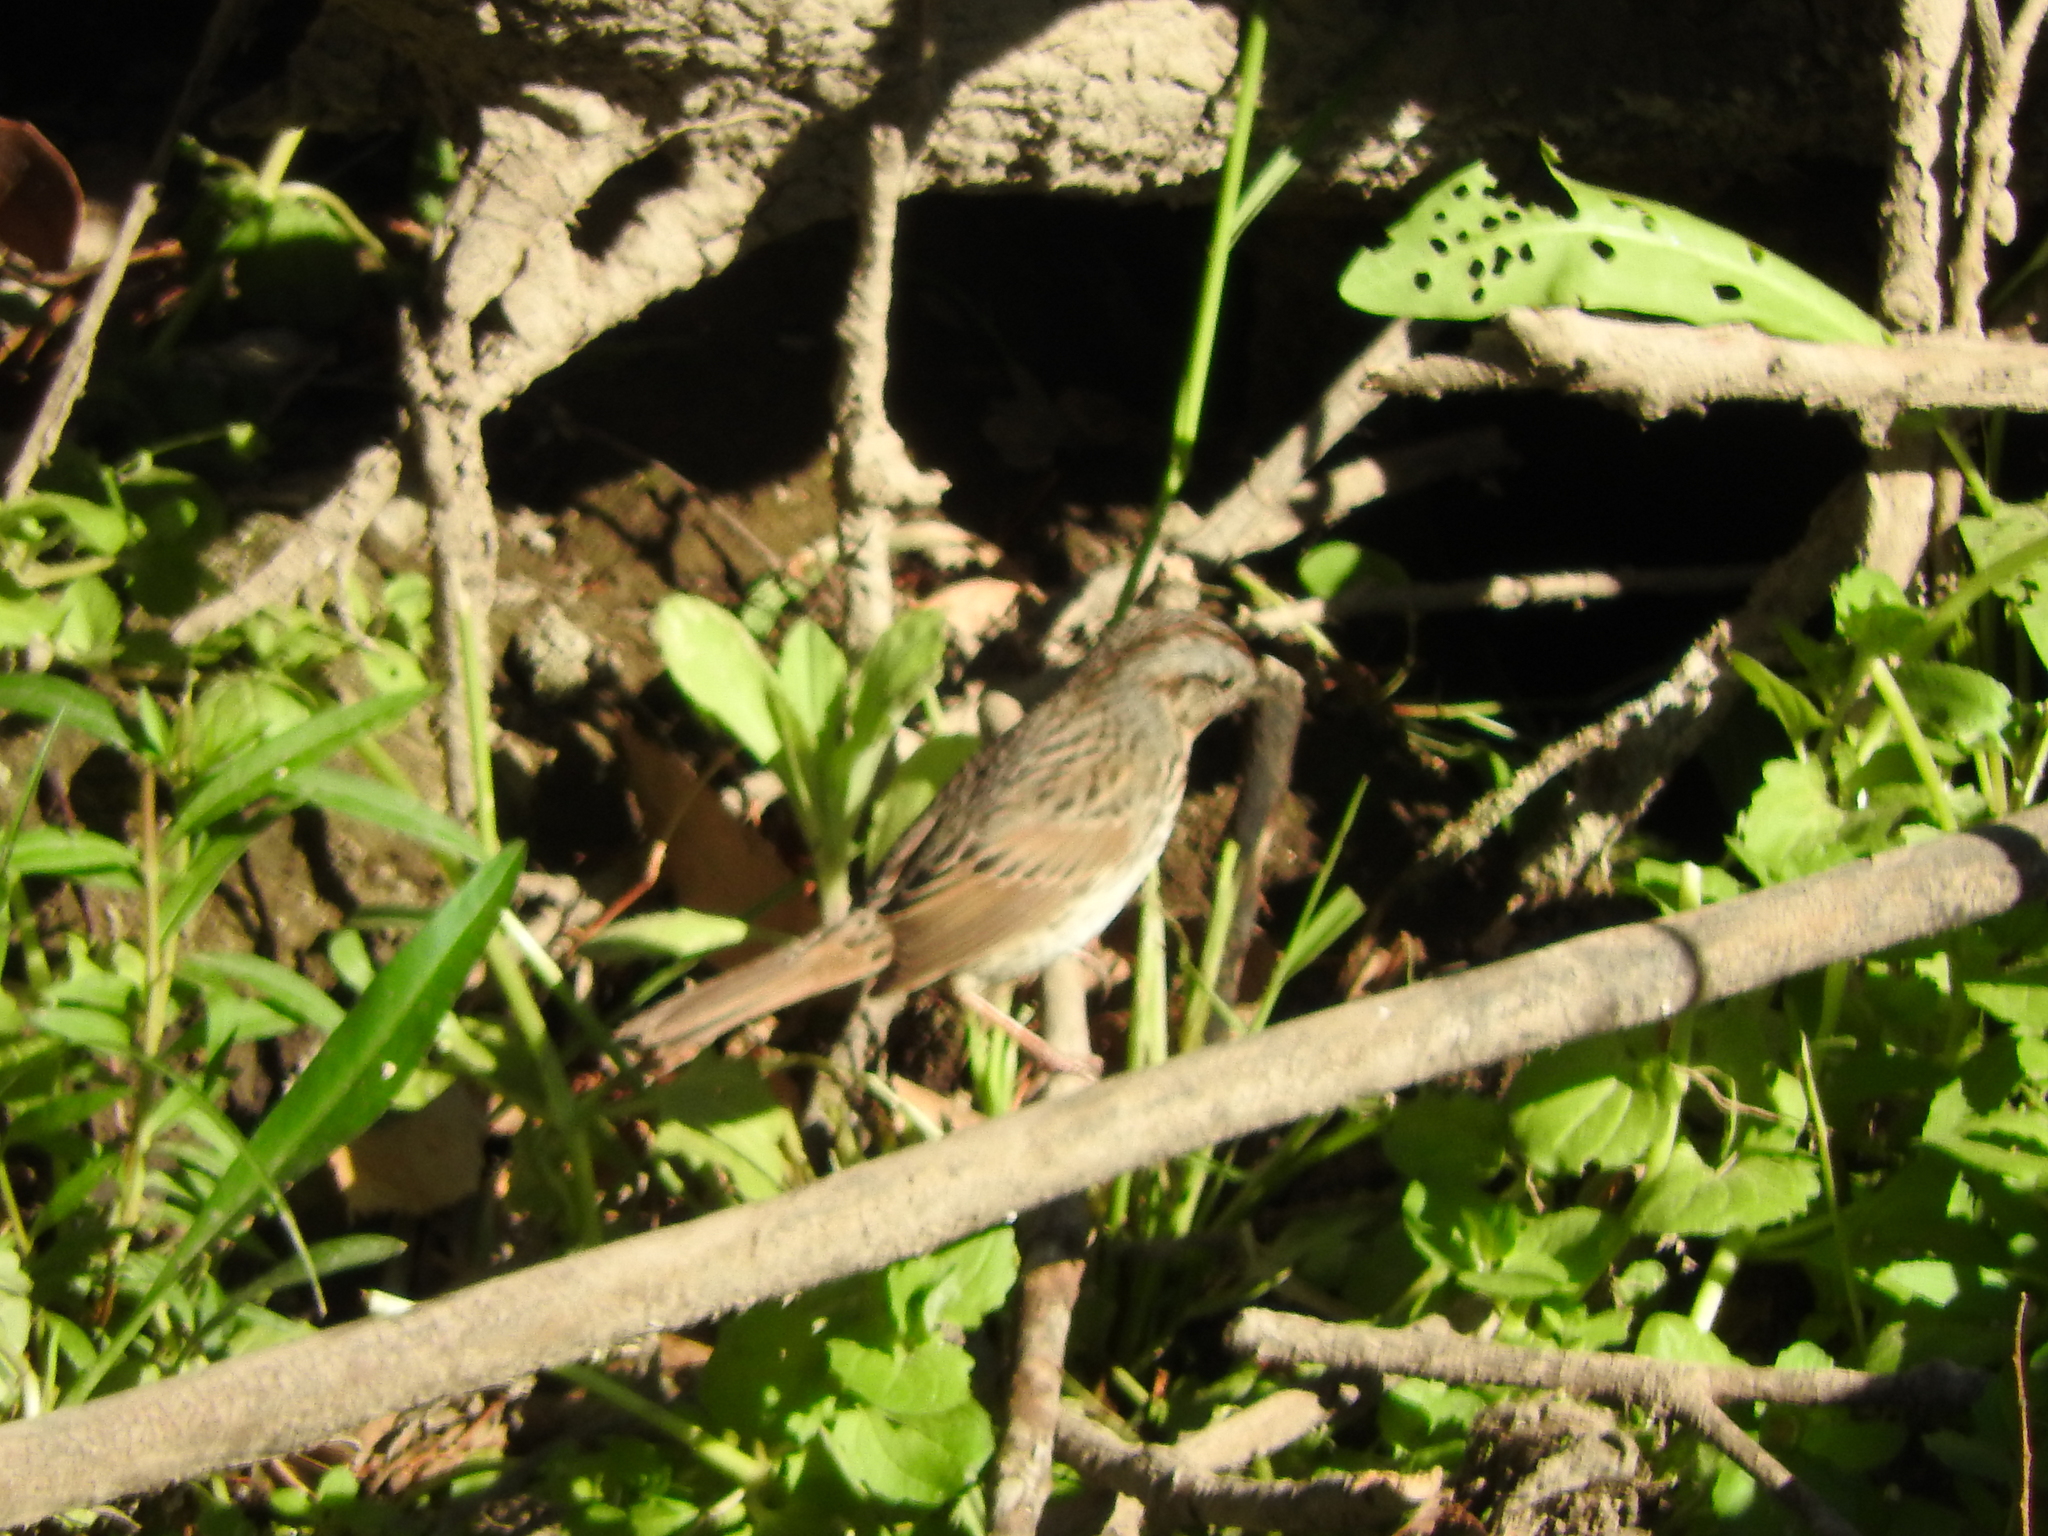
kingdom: Animalia
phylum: Chordata
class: Aves
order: Passeriformes
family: Passerellidae
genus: Melospiza
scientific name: Melospiza lincolnii
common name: Lincoln's sparrow
